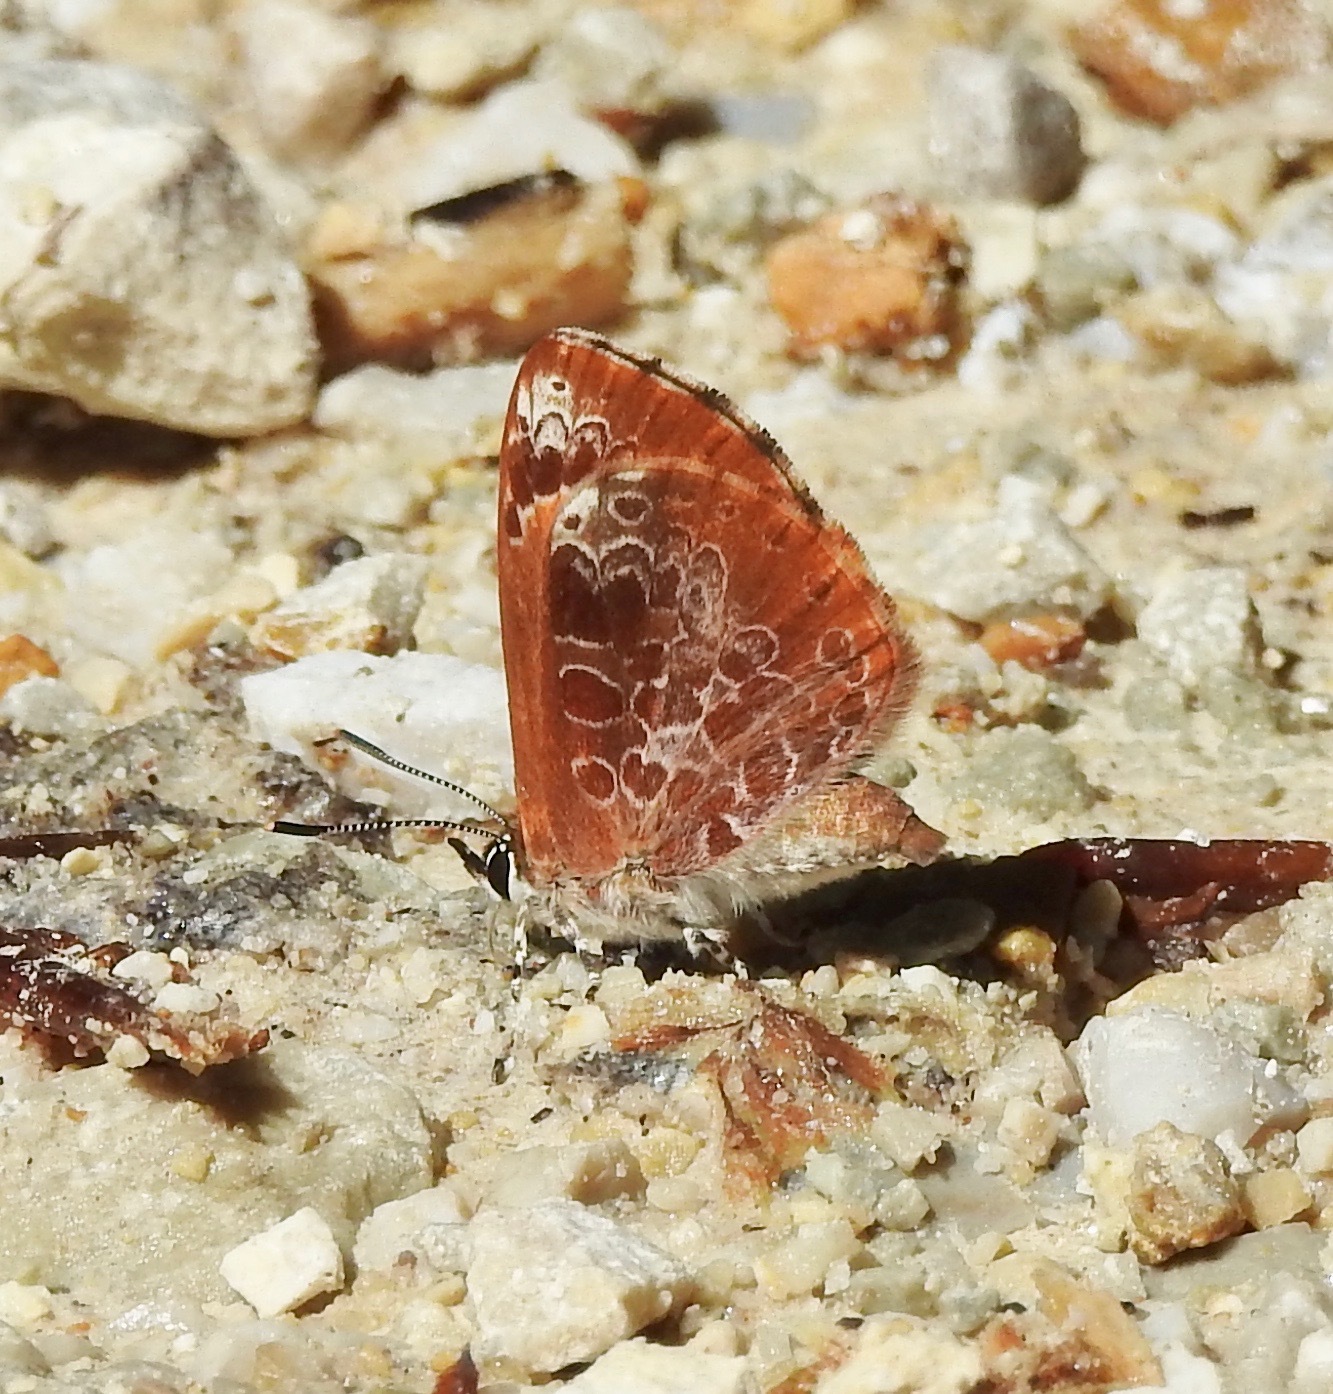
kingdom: Animalia
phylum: Arthropoda
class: Insecta
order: Lepidoptera
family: Lycaenidae
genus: Feniseca
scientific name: Feniseca tarquinius
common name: Harvester
